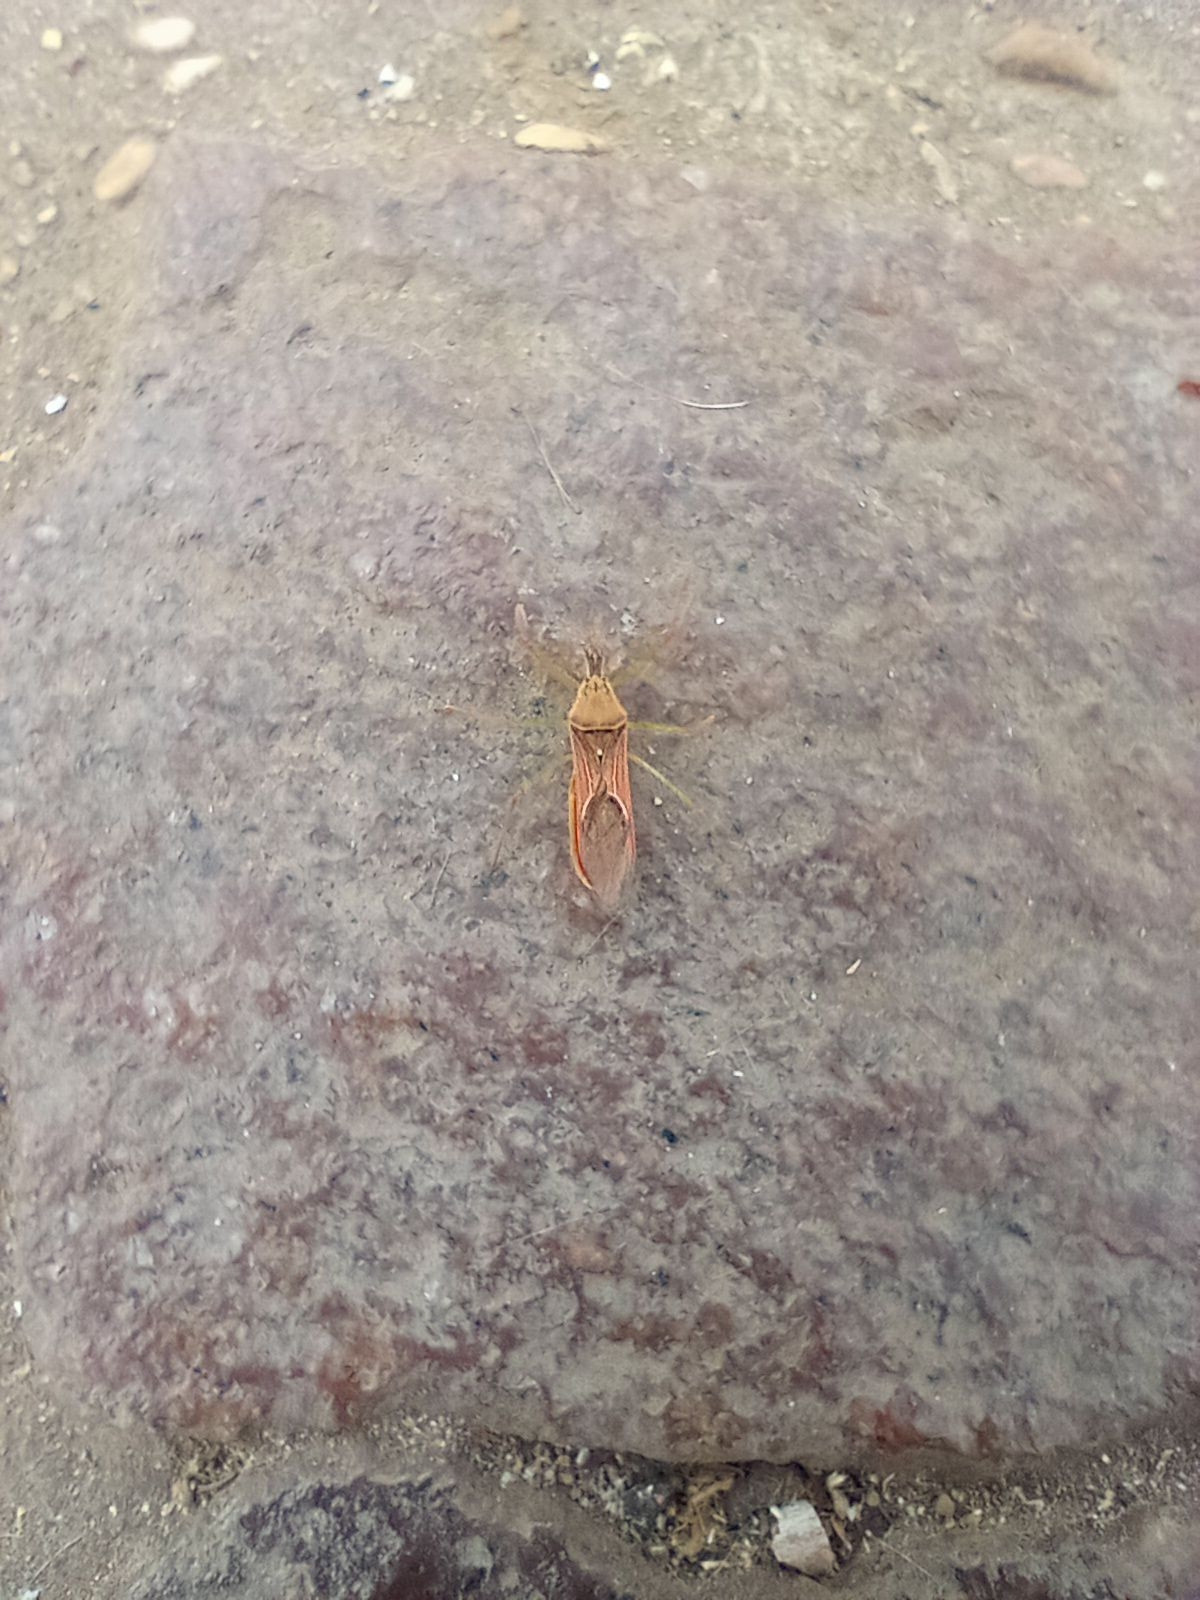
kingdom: Animalia
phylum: Arthropoda
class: Insecta
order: Hemiptera
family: Reduviidae
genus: Zelus
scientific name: Zelus renardii
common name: Assassin bug
